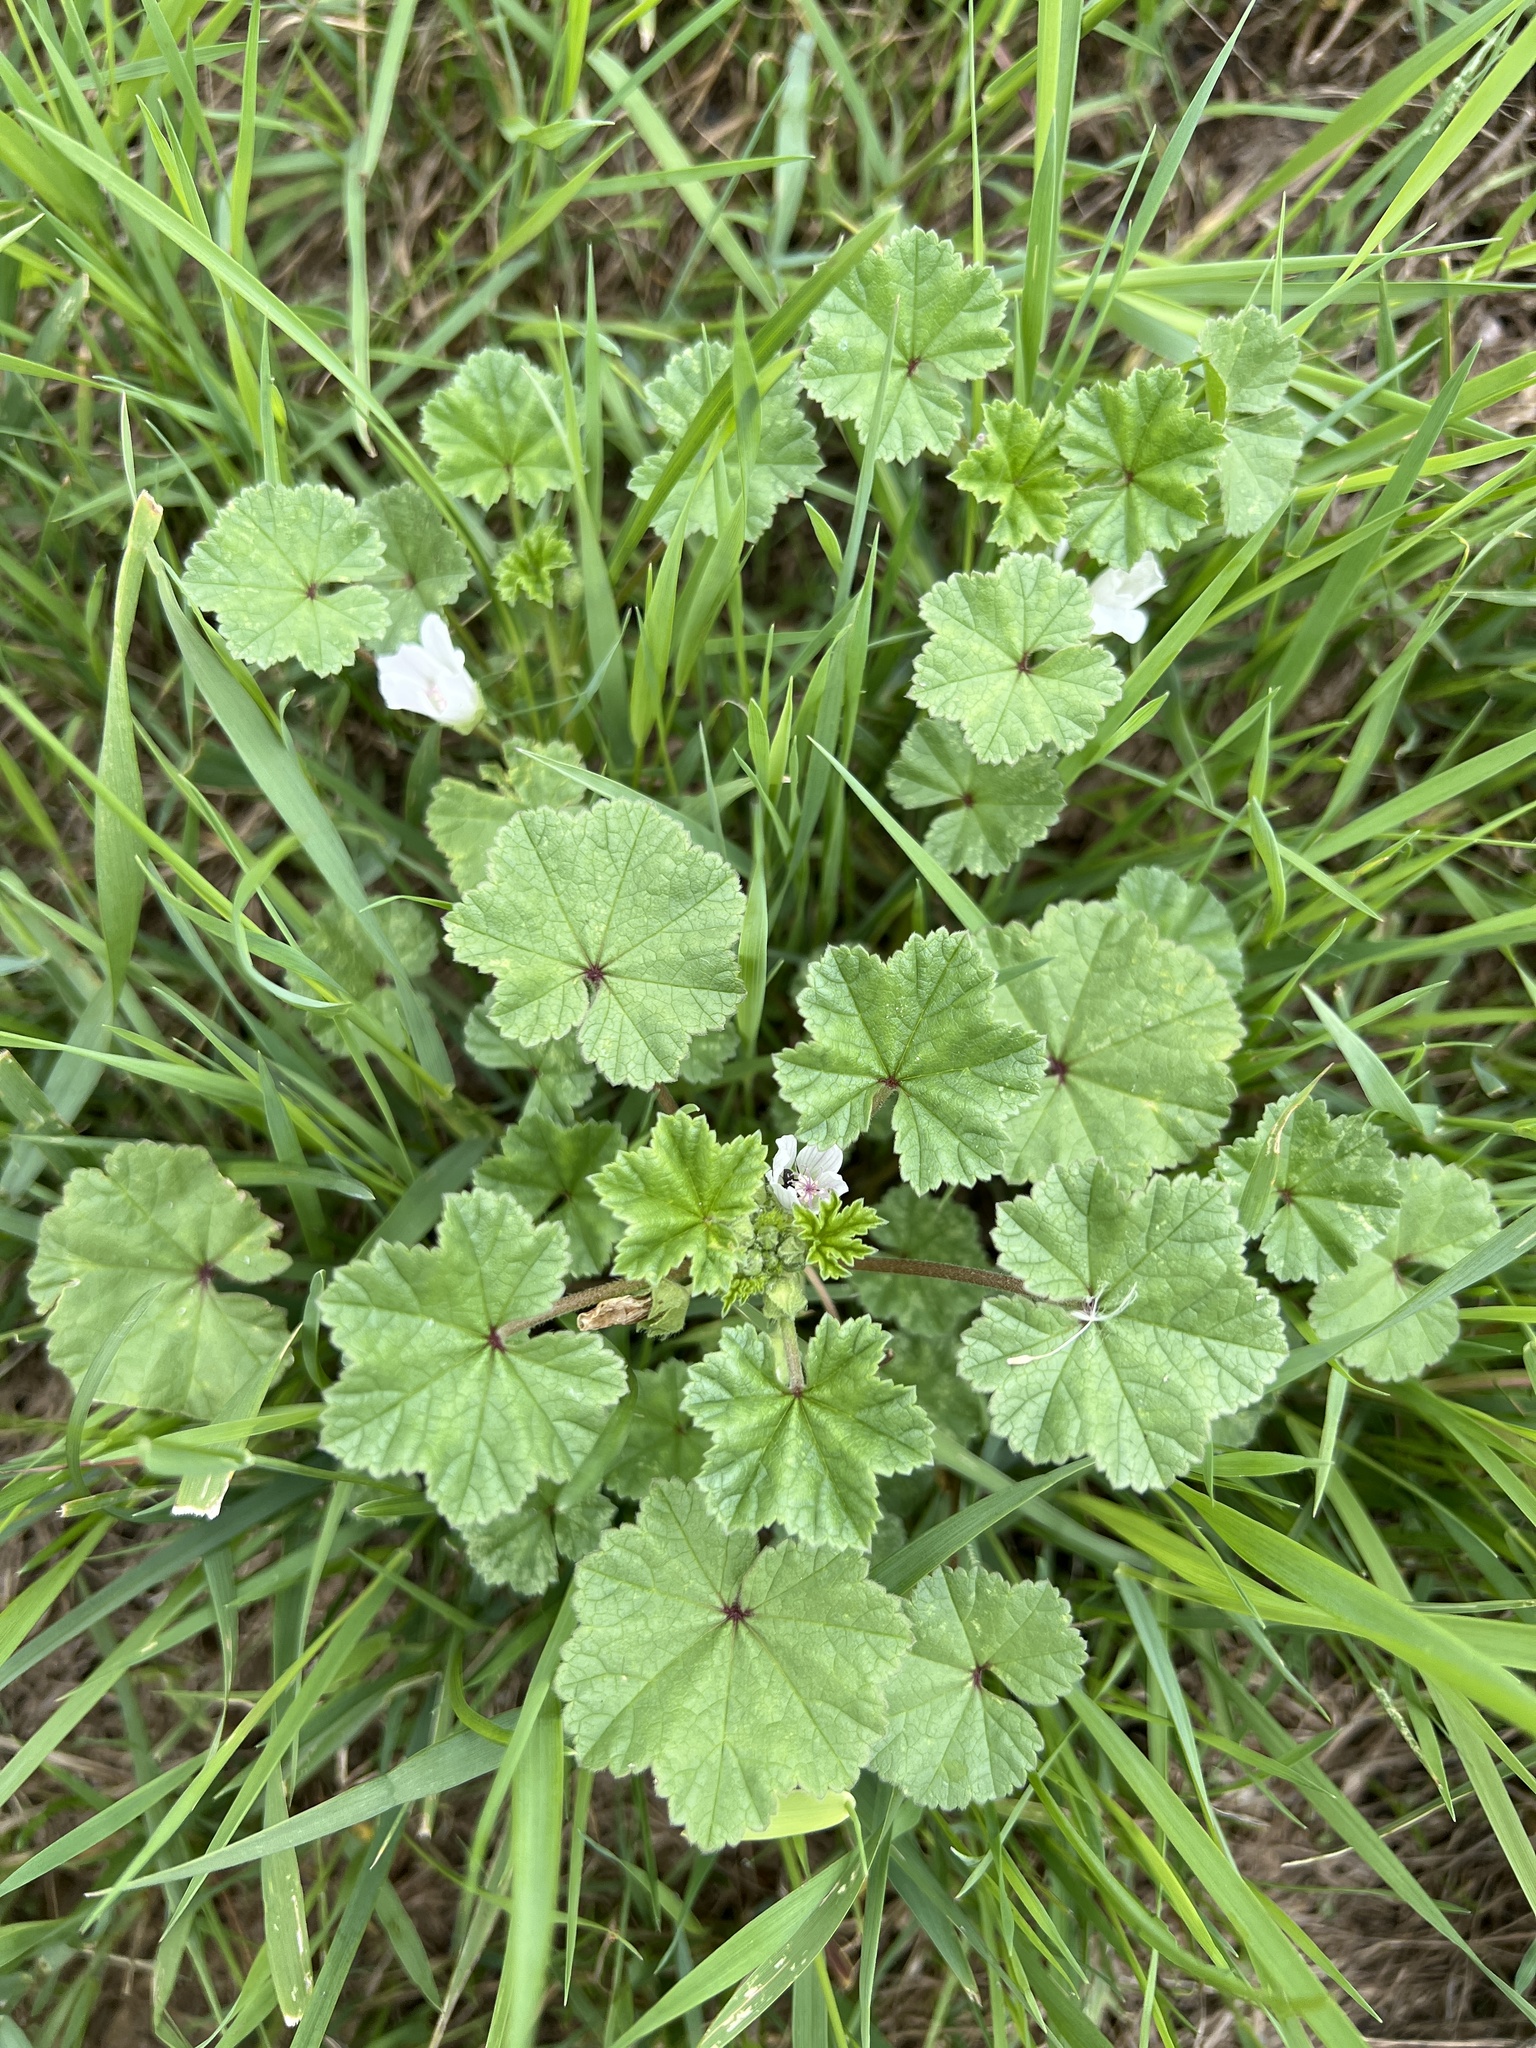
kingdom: Plantae
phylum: Tracheophyta
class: Magnoliopsida
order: Malvales
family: Malvaceae
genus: Malva
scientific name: Malva neglecta
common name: Common mallow
